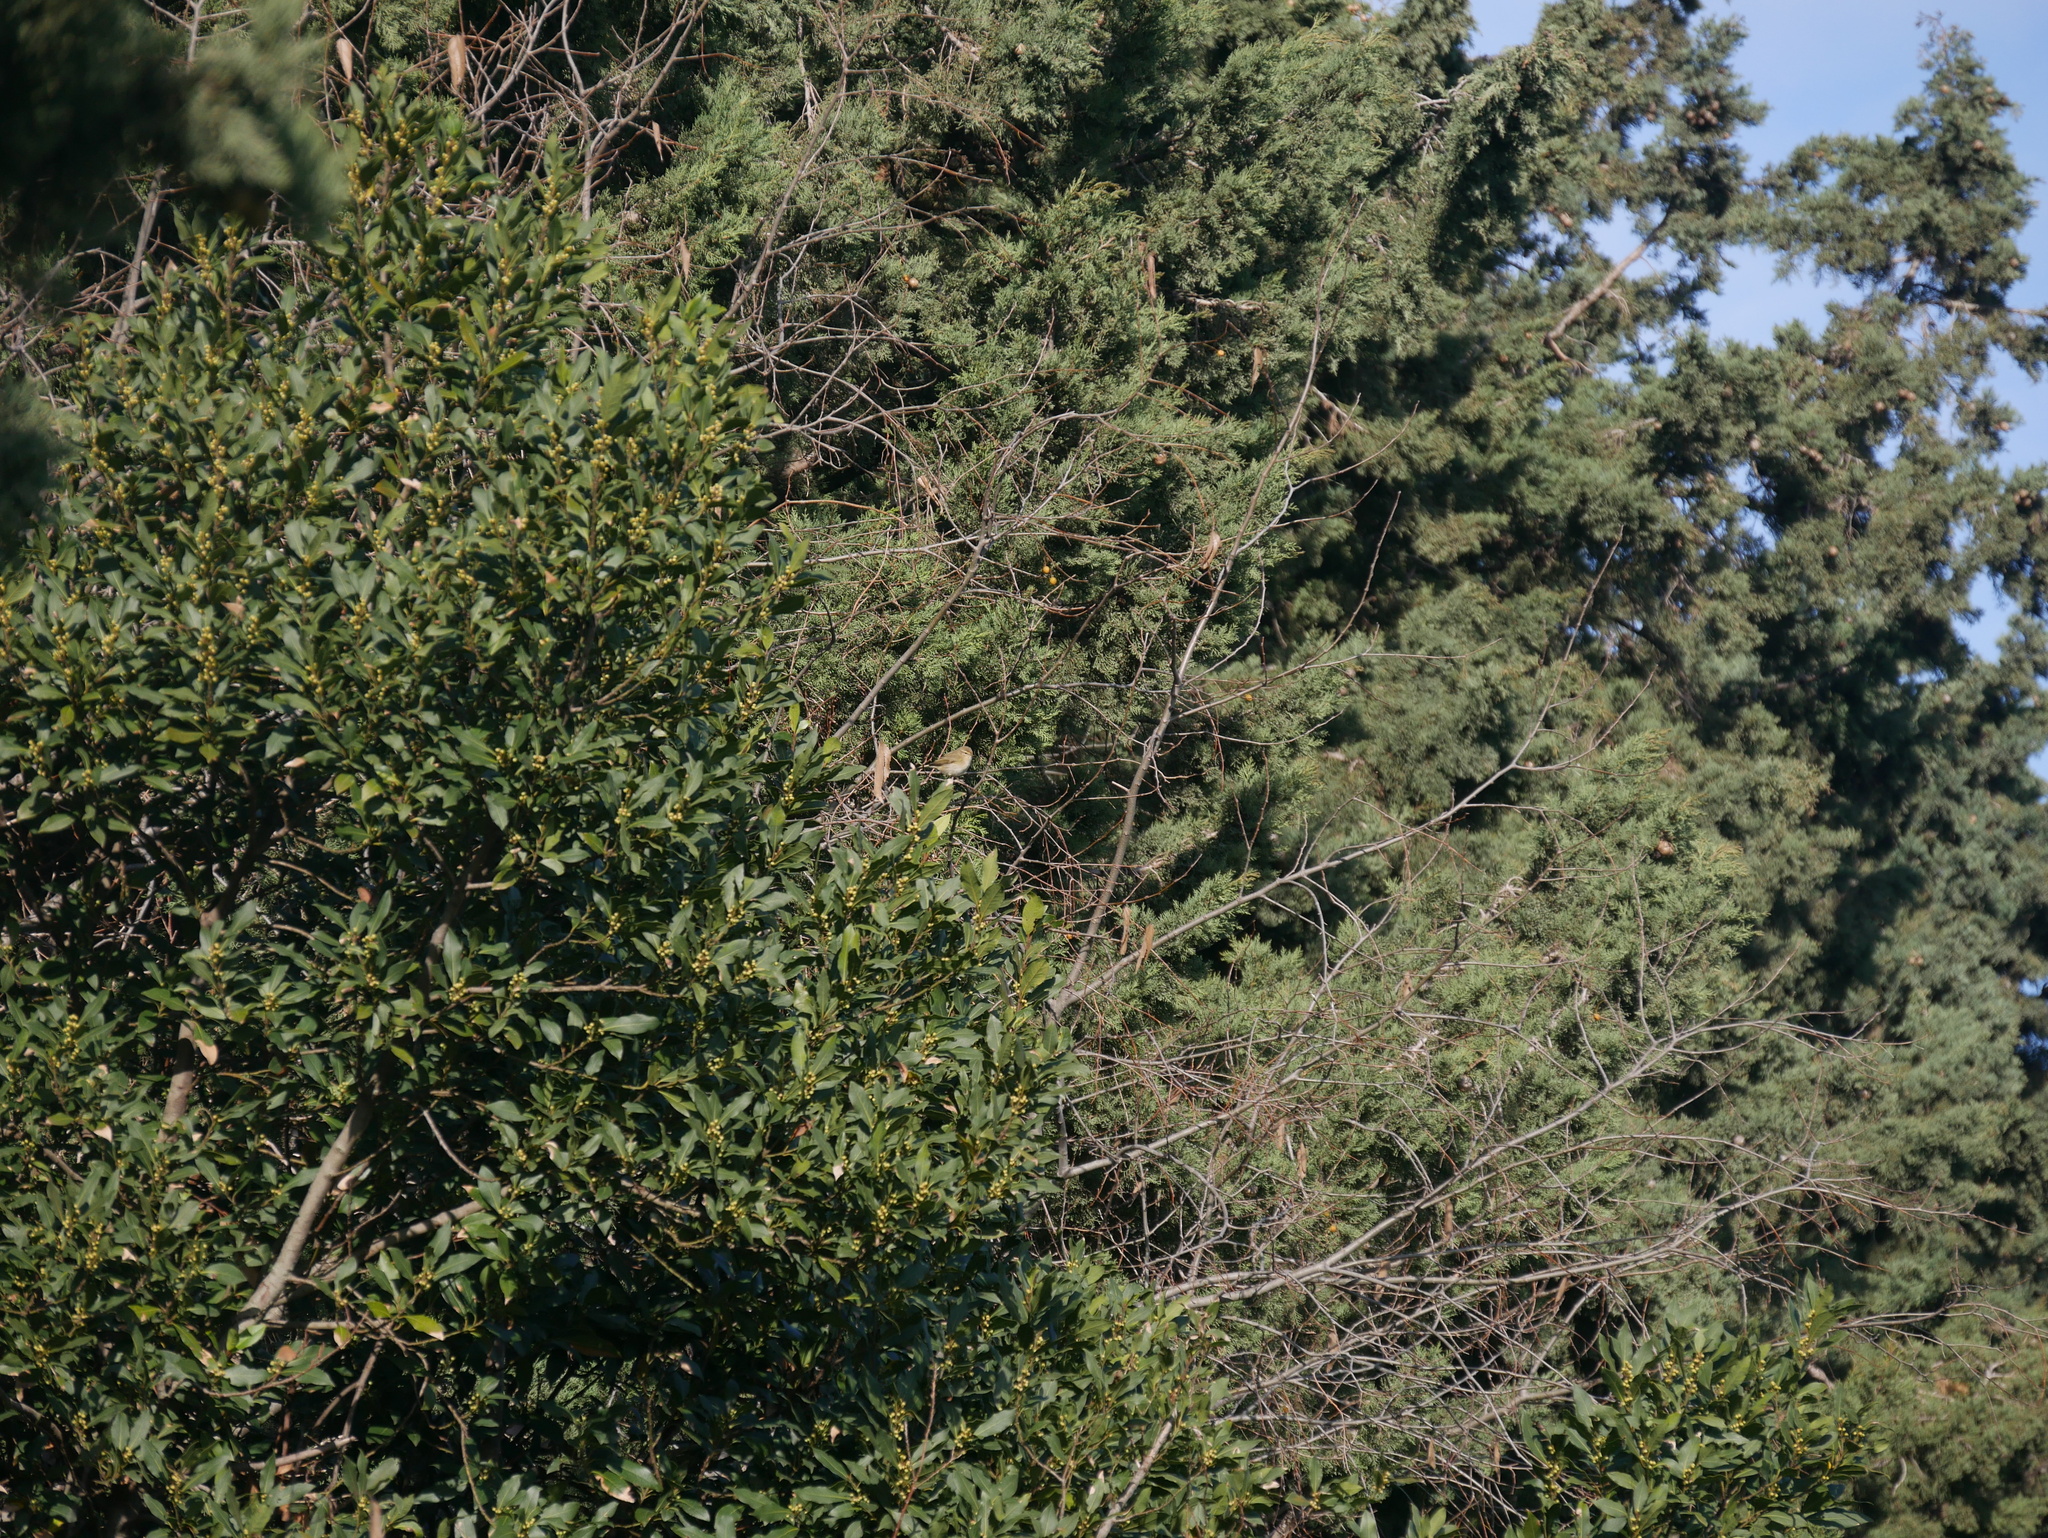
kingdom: Animalia
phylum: Chordata
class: Aves
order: Passeriformes
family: Phylloscopidae
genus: Phylloscopus
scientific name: Phylloscopus collybita
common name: Common chiffchaff
